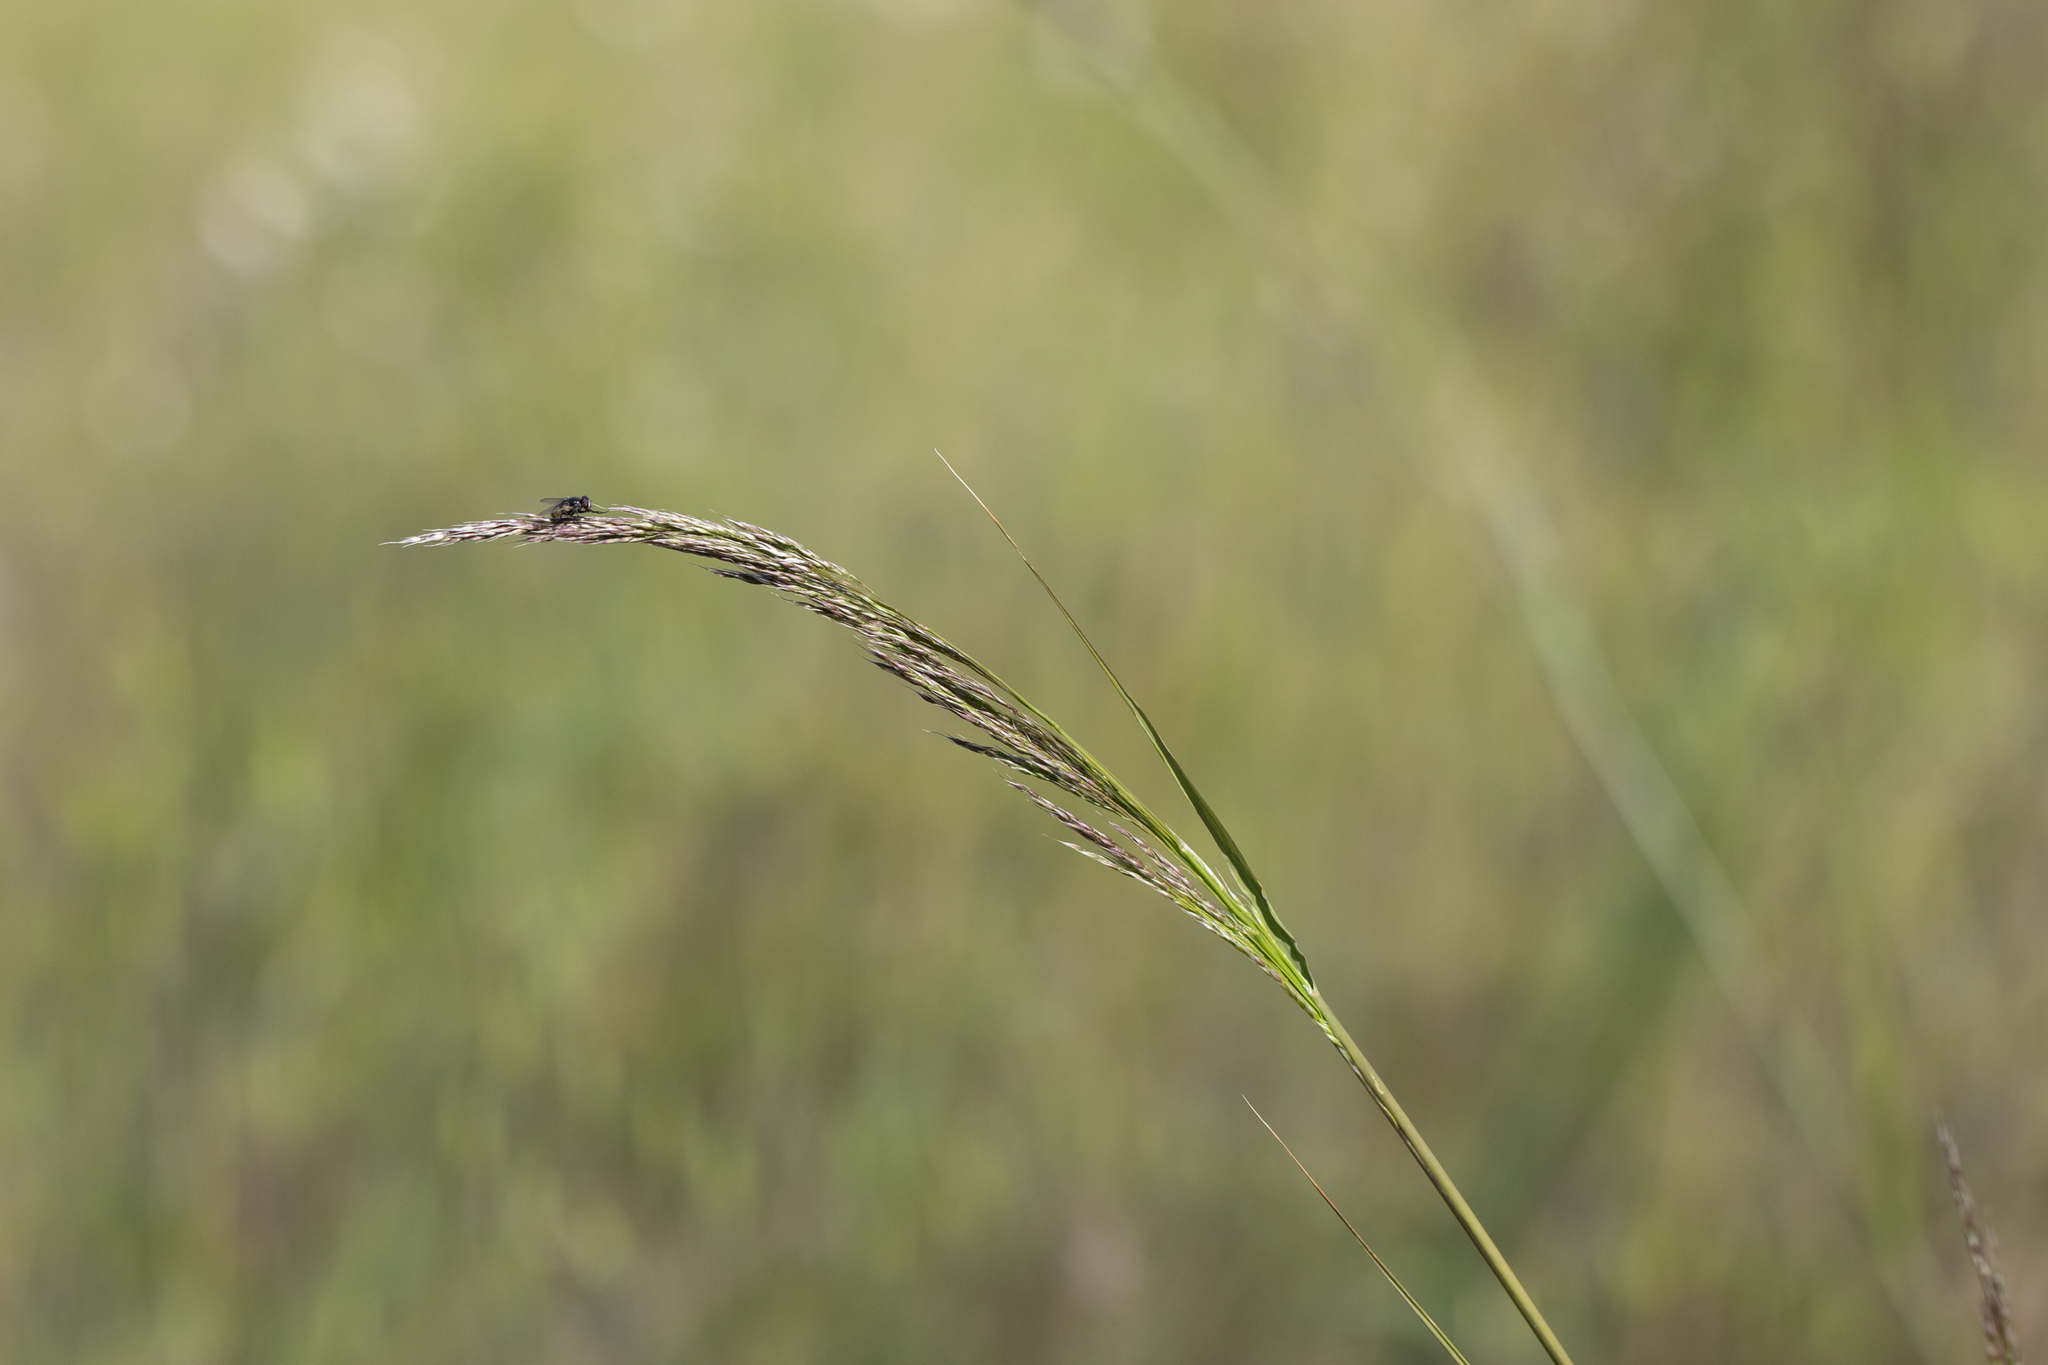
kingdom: Plantae
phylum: Tracheophyta
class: Liliopsida
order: Poales
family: Poaceae
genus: Oloptum
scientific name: Oloptum miliaceum
